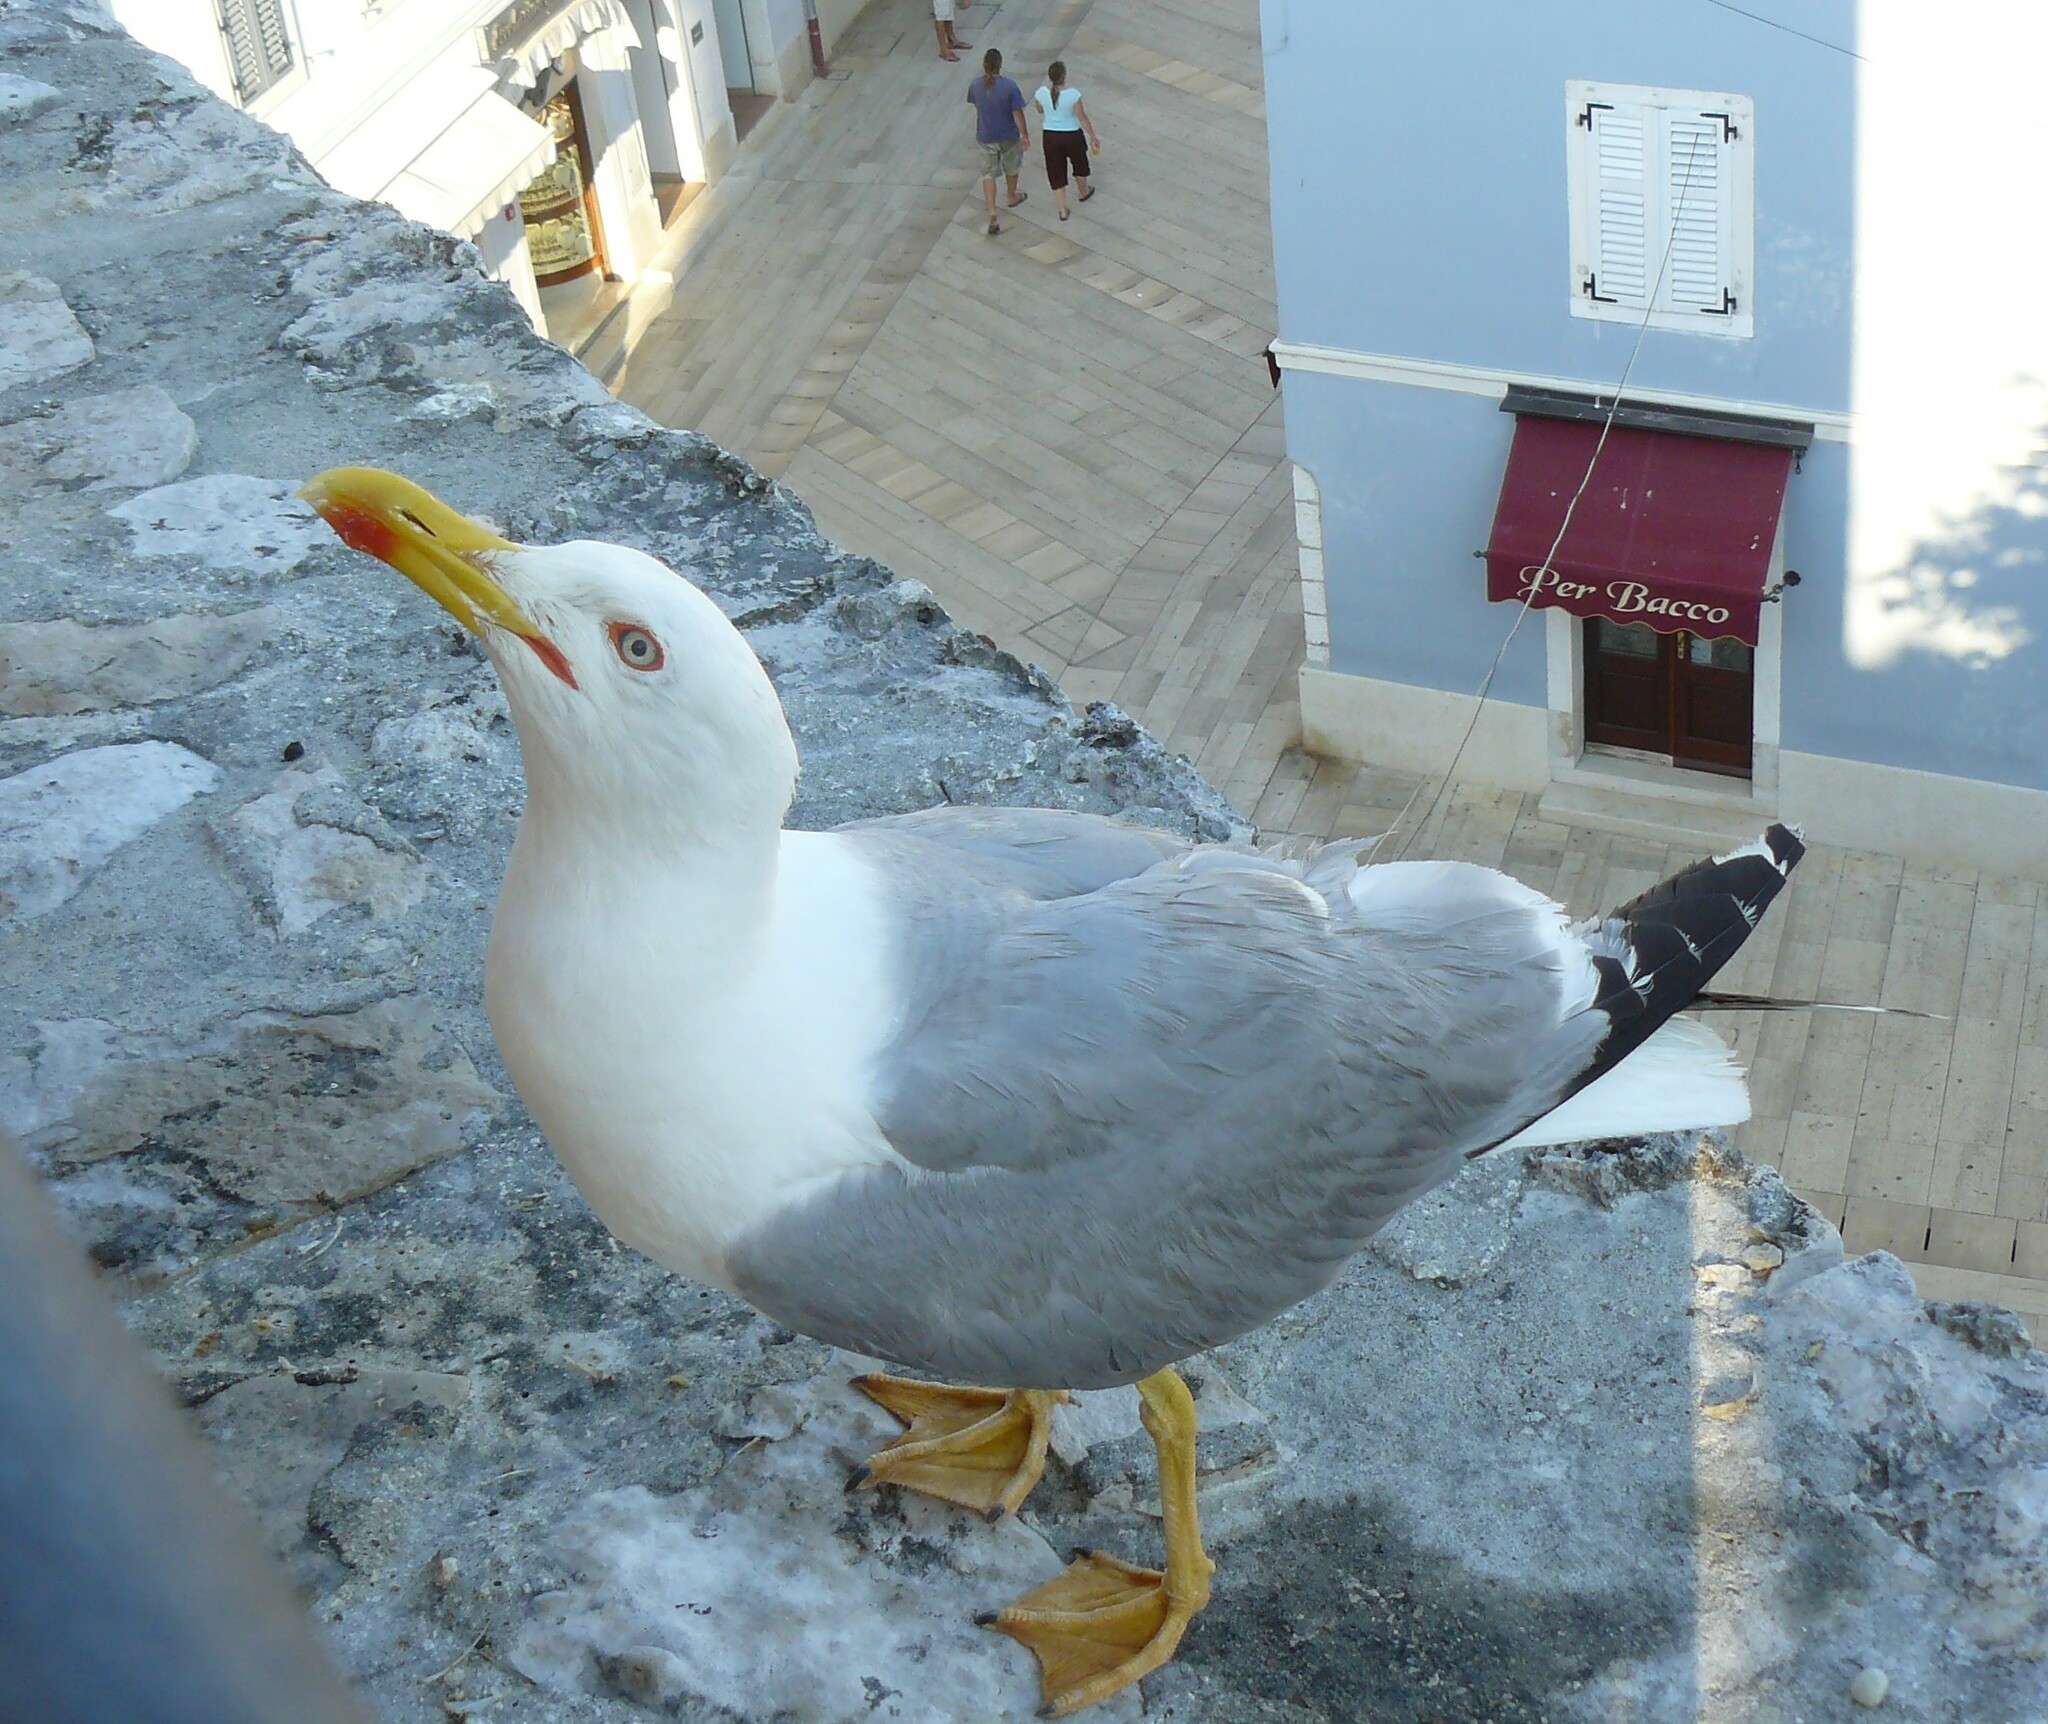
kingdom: Animalia
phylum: Chordata
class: Aves
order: Charadriiformes
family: Laridae
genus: Larus
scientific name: Larus michahellis
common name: Yellow-legged gull
